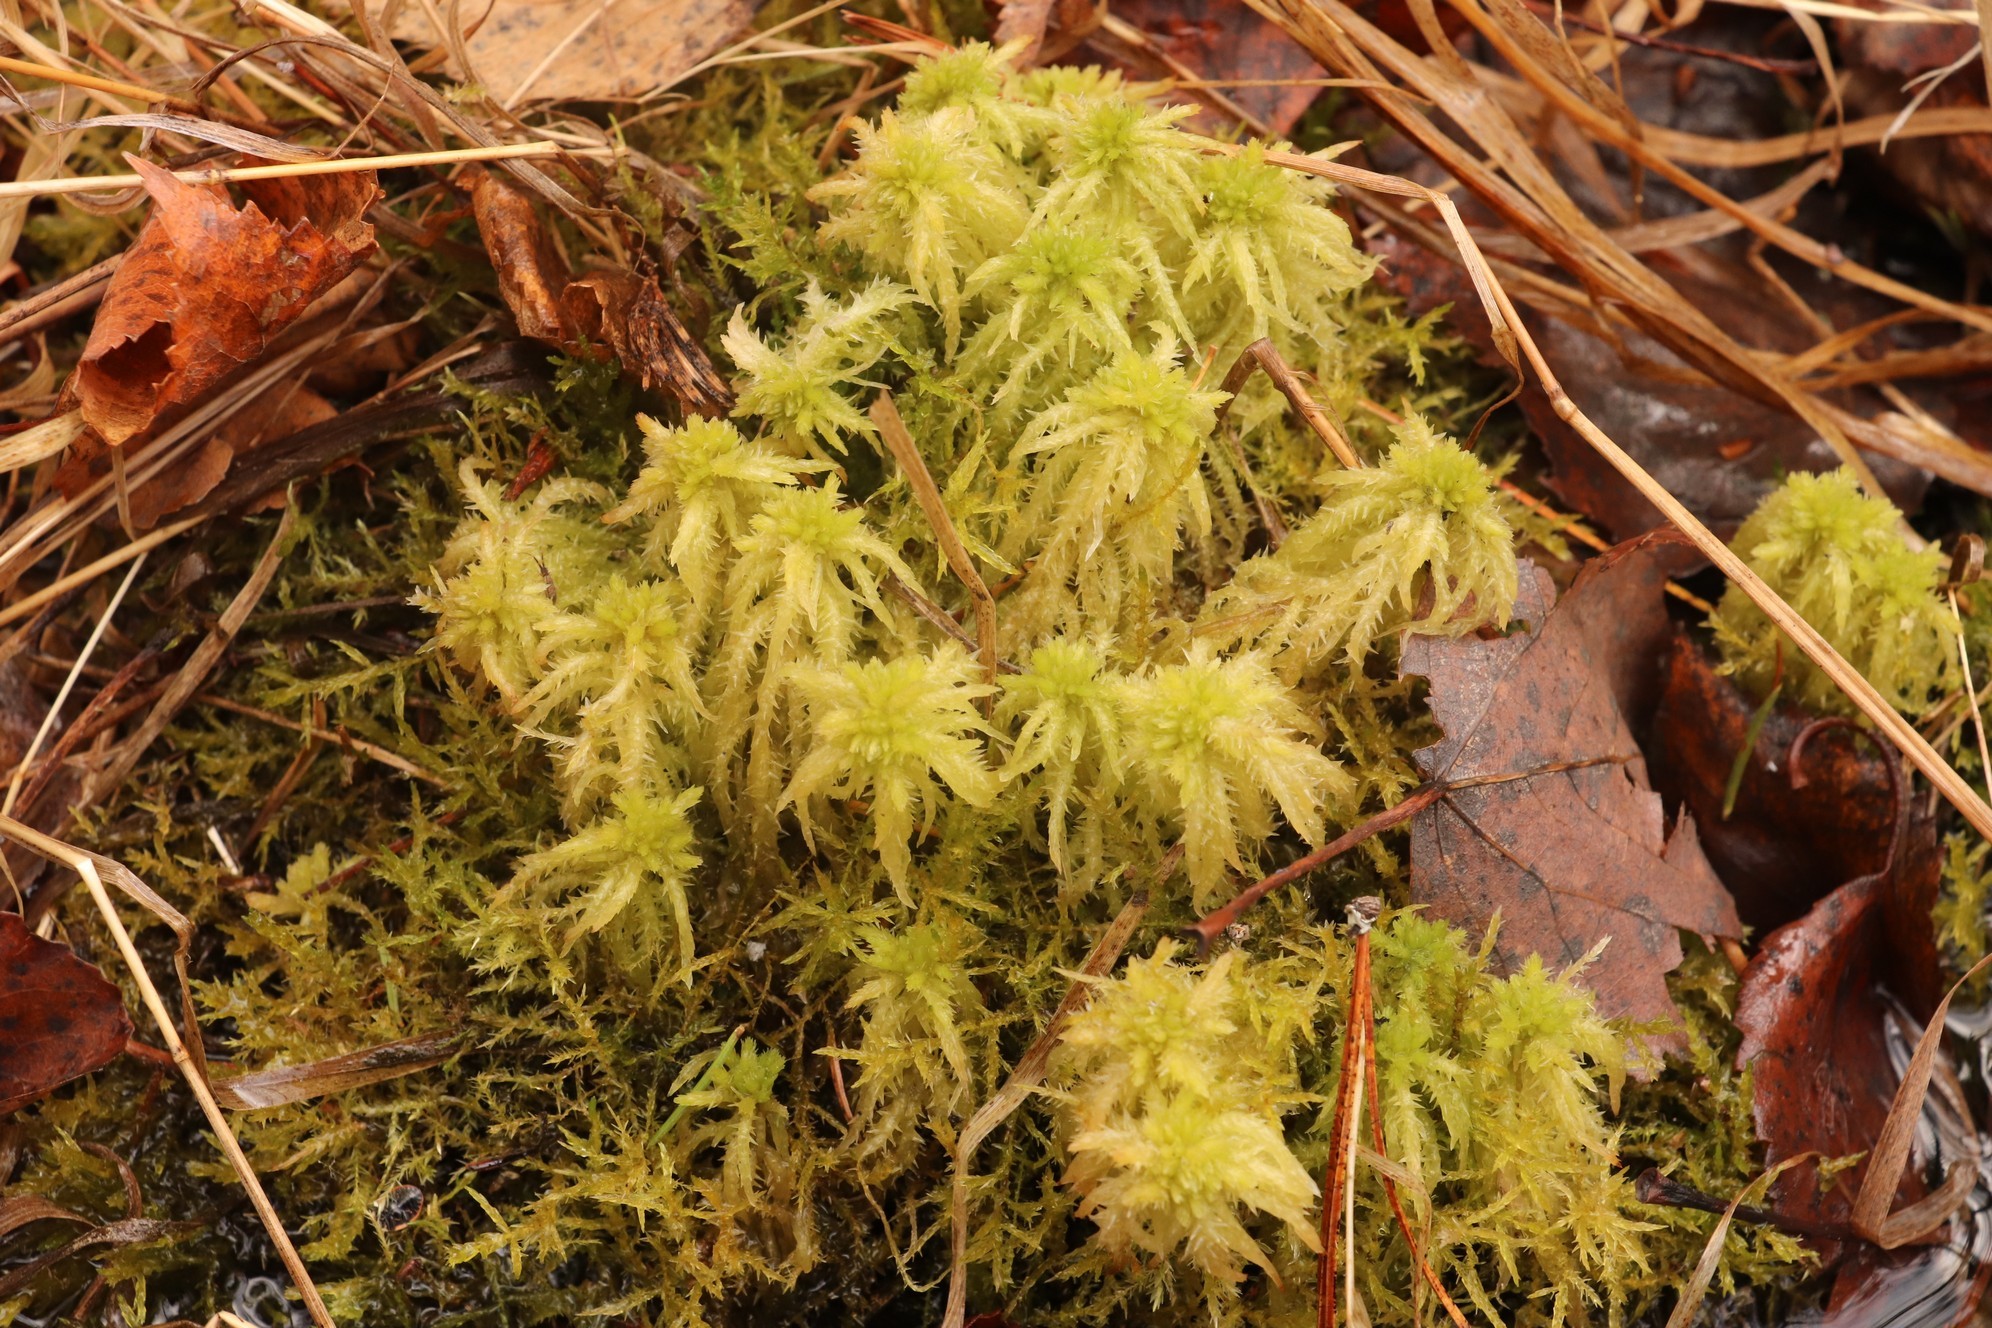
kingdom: Plantae
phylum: Bryophyta
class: Sphagnopsida
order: Sphagnales
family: Sphagnaceae
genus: Sphagnum
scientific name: Sphagnum squarrosum
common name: Shaggy peat moss
